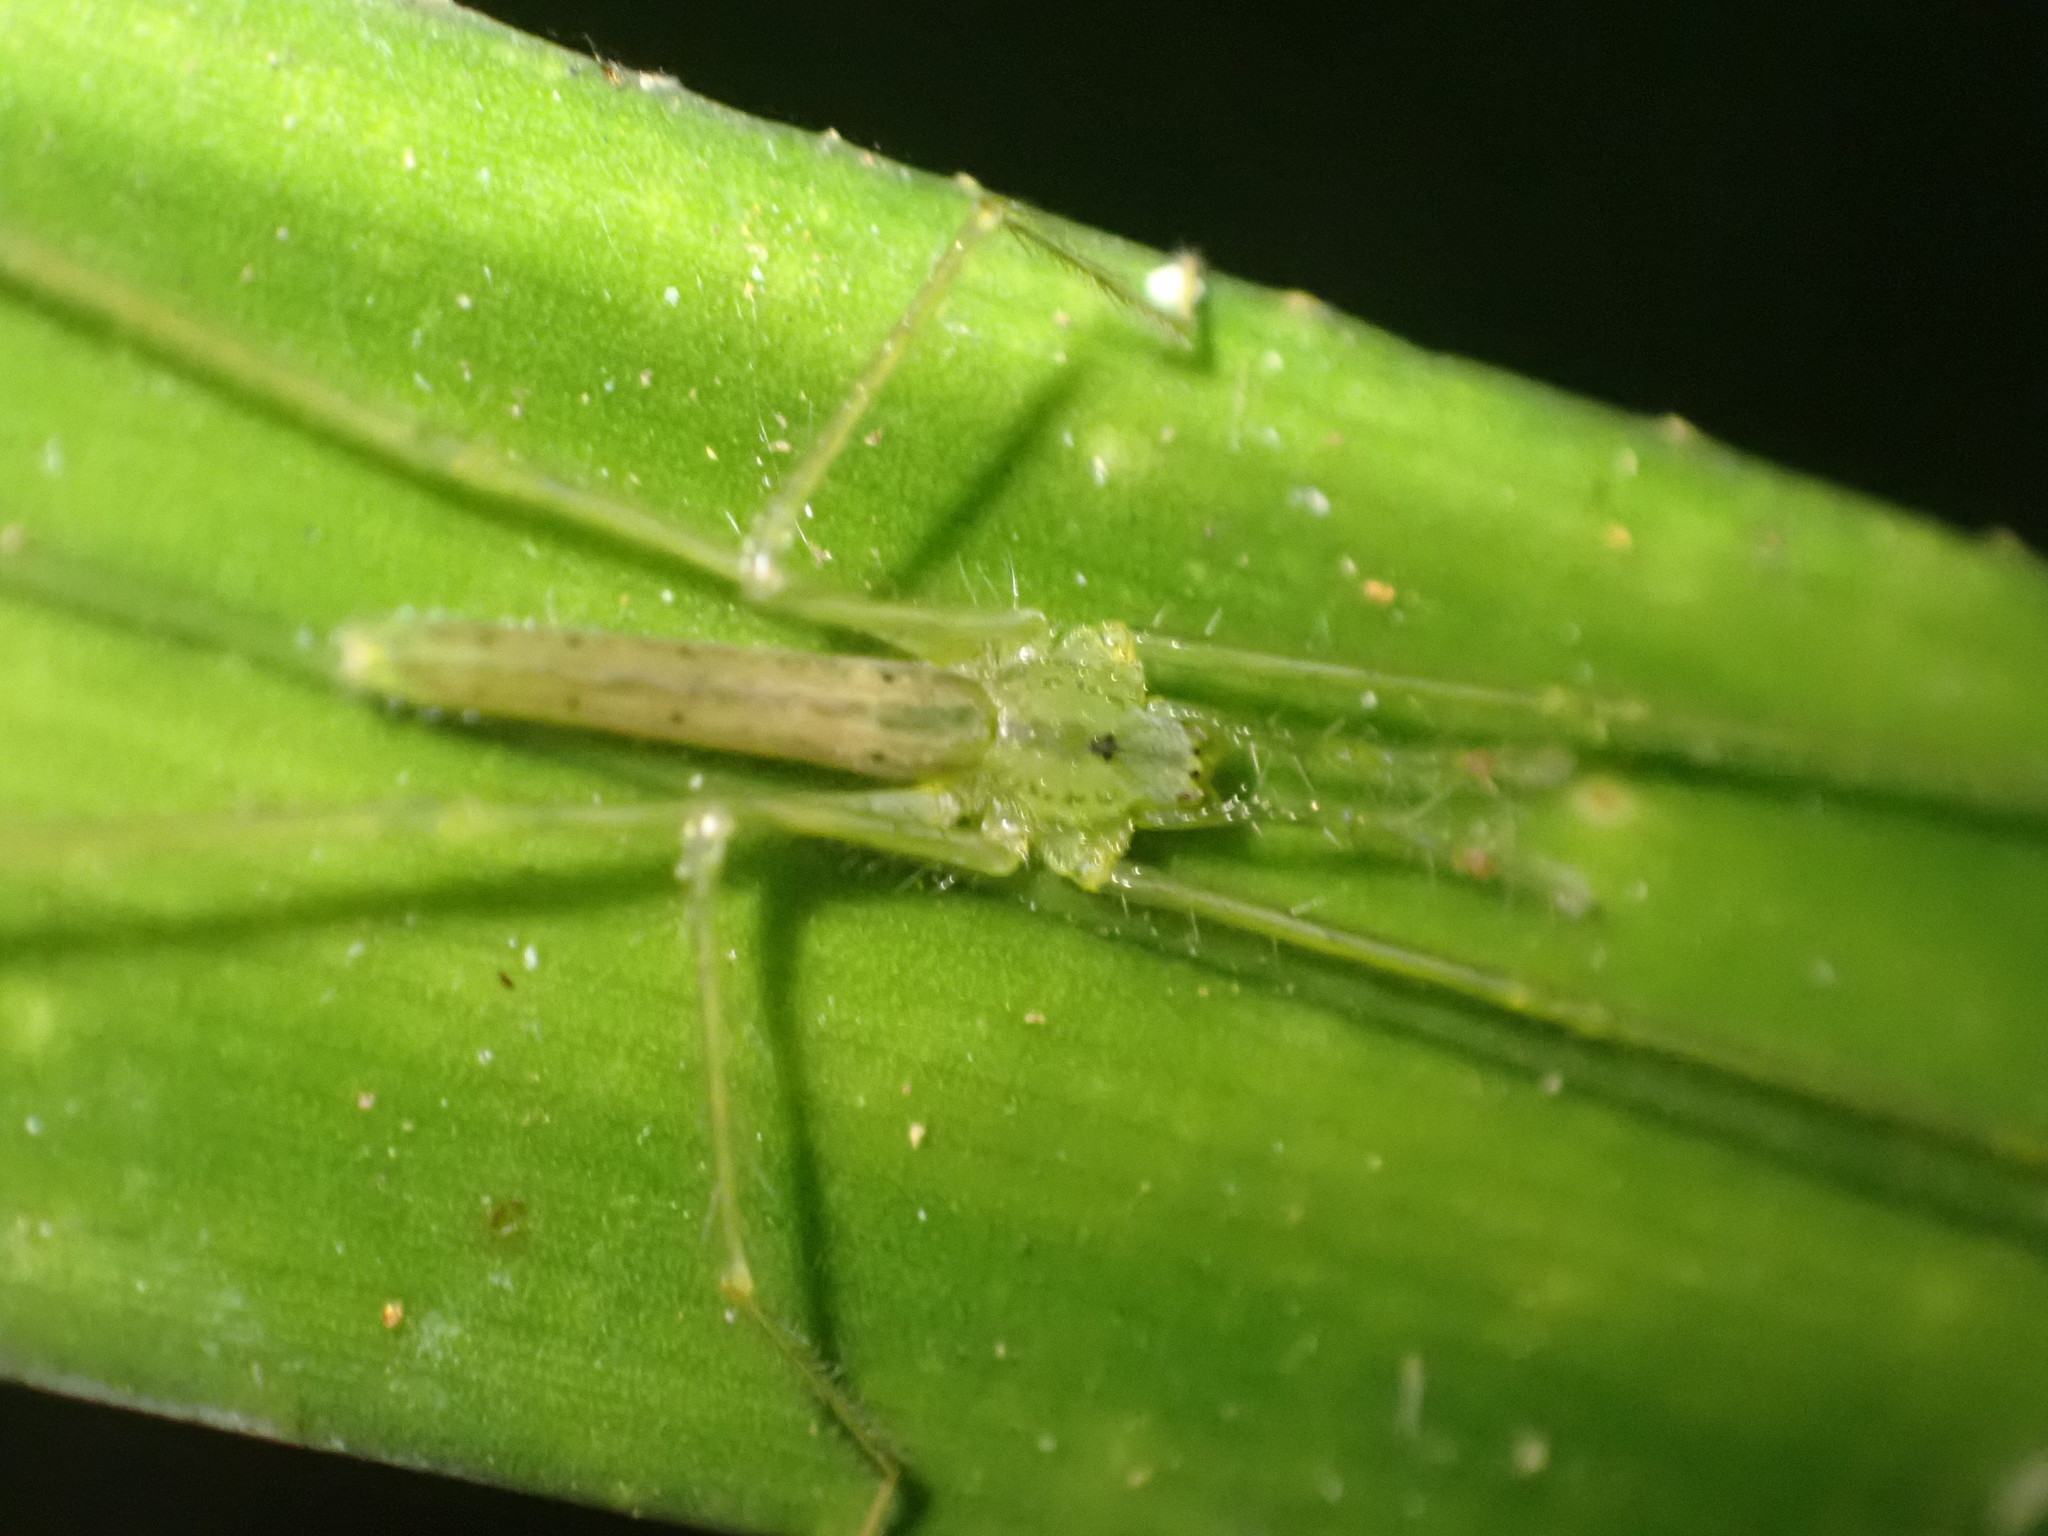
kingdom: Animalia
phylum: Arthropoda
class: Arachnida
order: Araneae
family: Desidae
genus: Ischalea
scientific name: Ischalea spinipes
